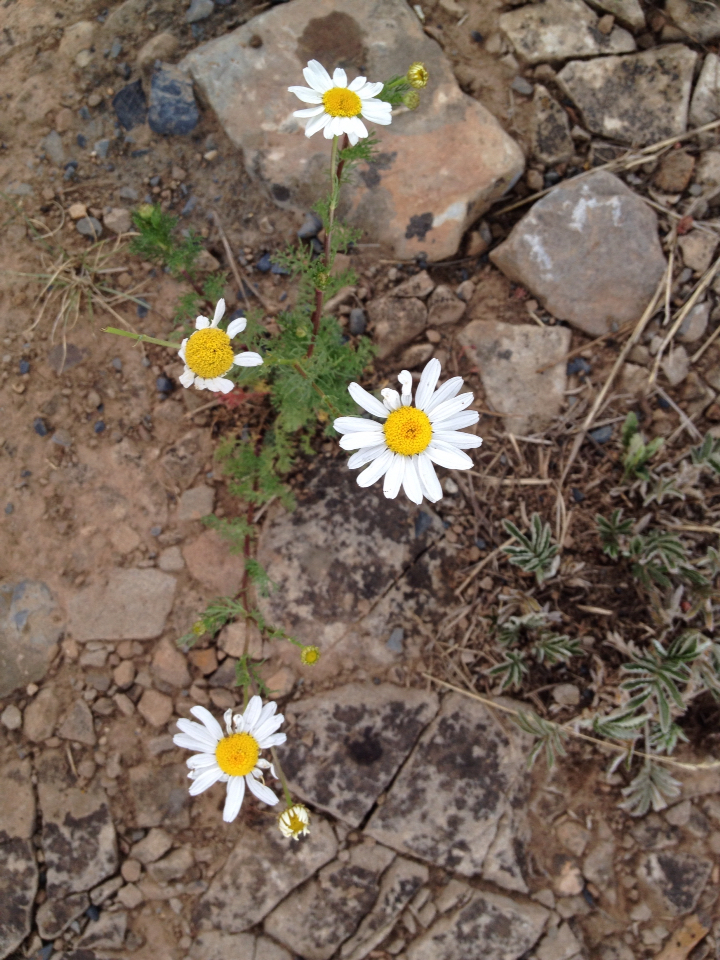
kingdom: Plantae
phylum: Tracheophyta
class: Magnoliopsida
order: Asterales
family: Asteraceae
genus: Leucanthemum
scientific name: Leucanthemum vulgare
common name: Oxeye daisy
